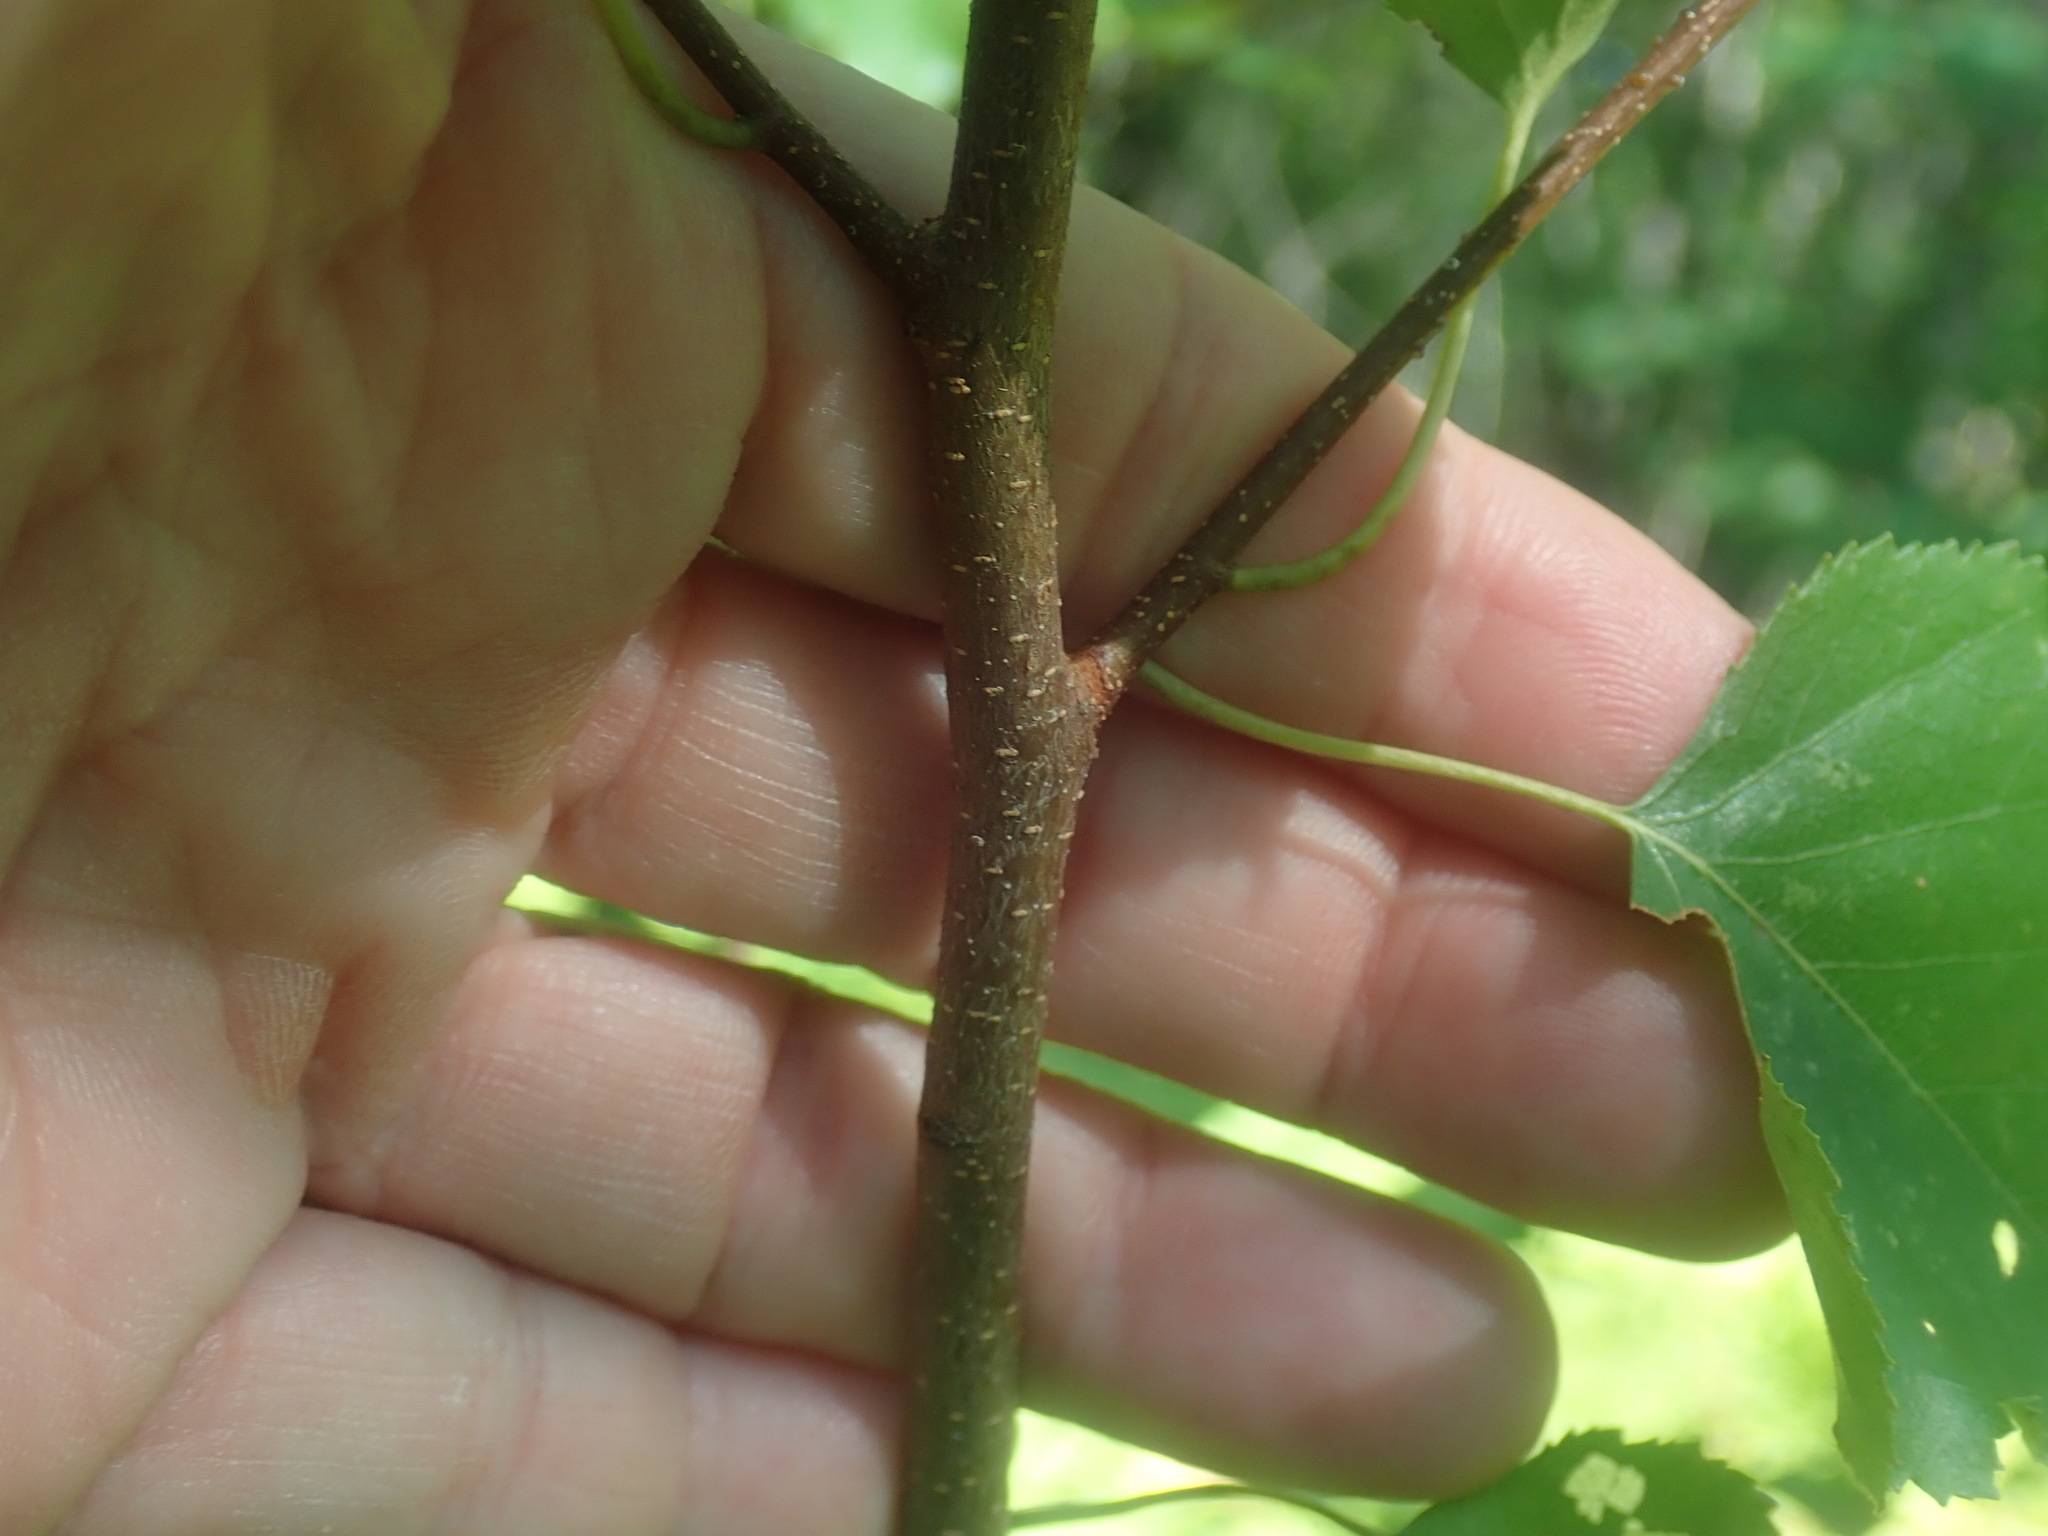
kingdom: Plantae
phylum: Tracheophyta
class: Magnoliopsida
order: Fagales
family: Betulaceae
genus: Betula
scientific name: Betula populifolia
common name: Fire birch
